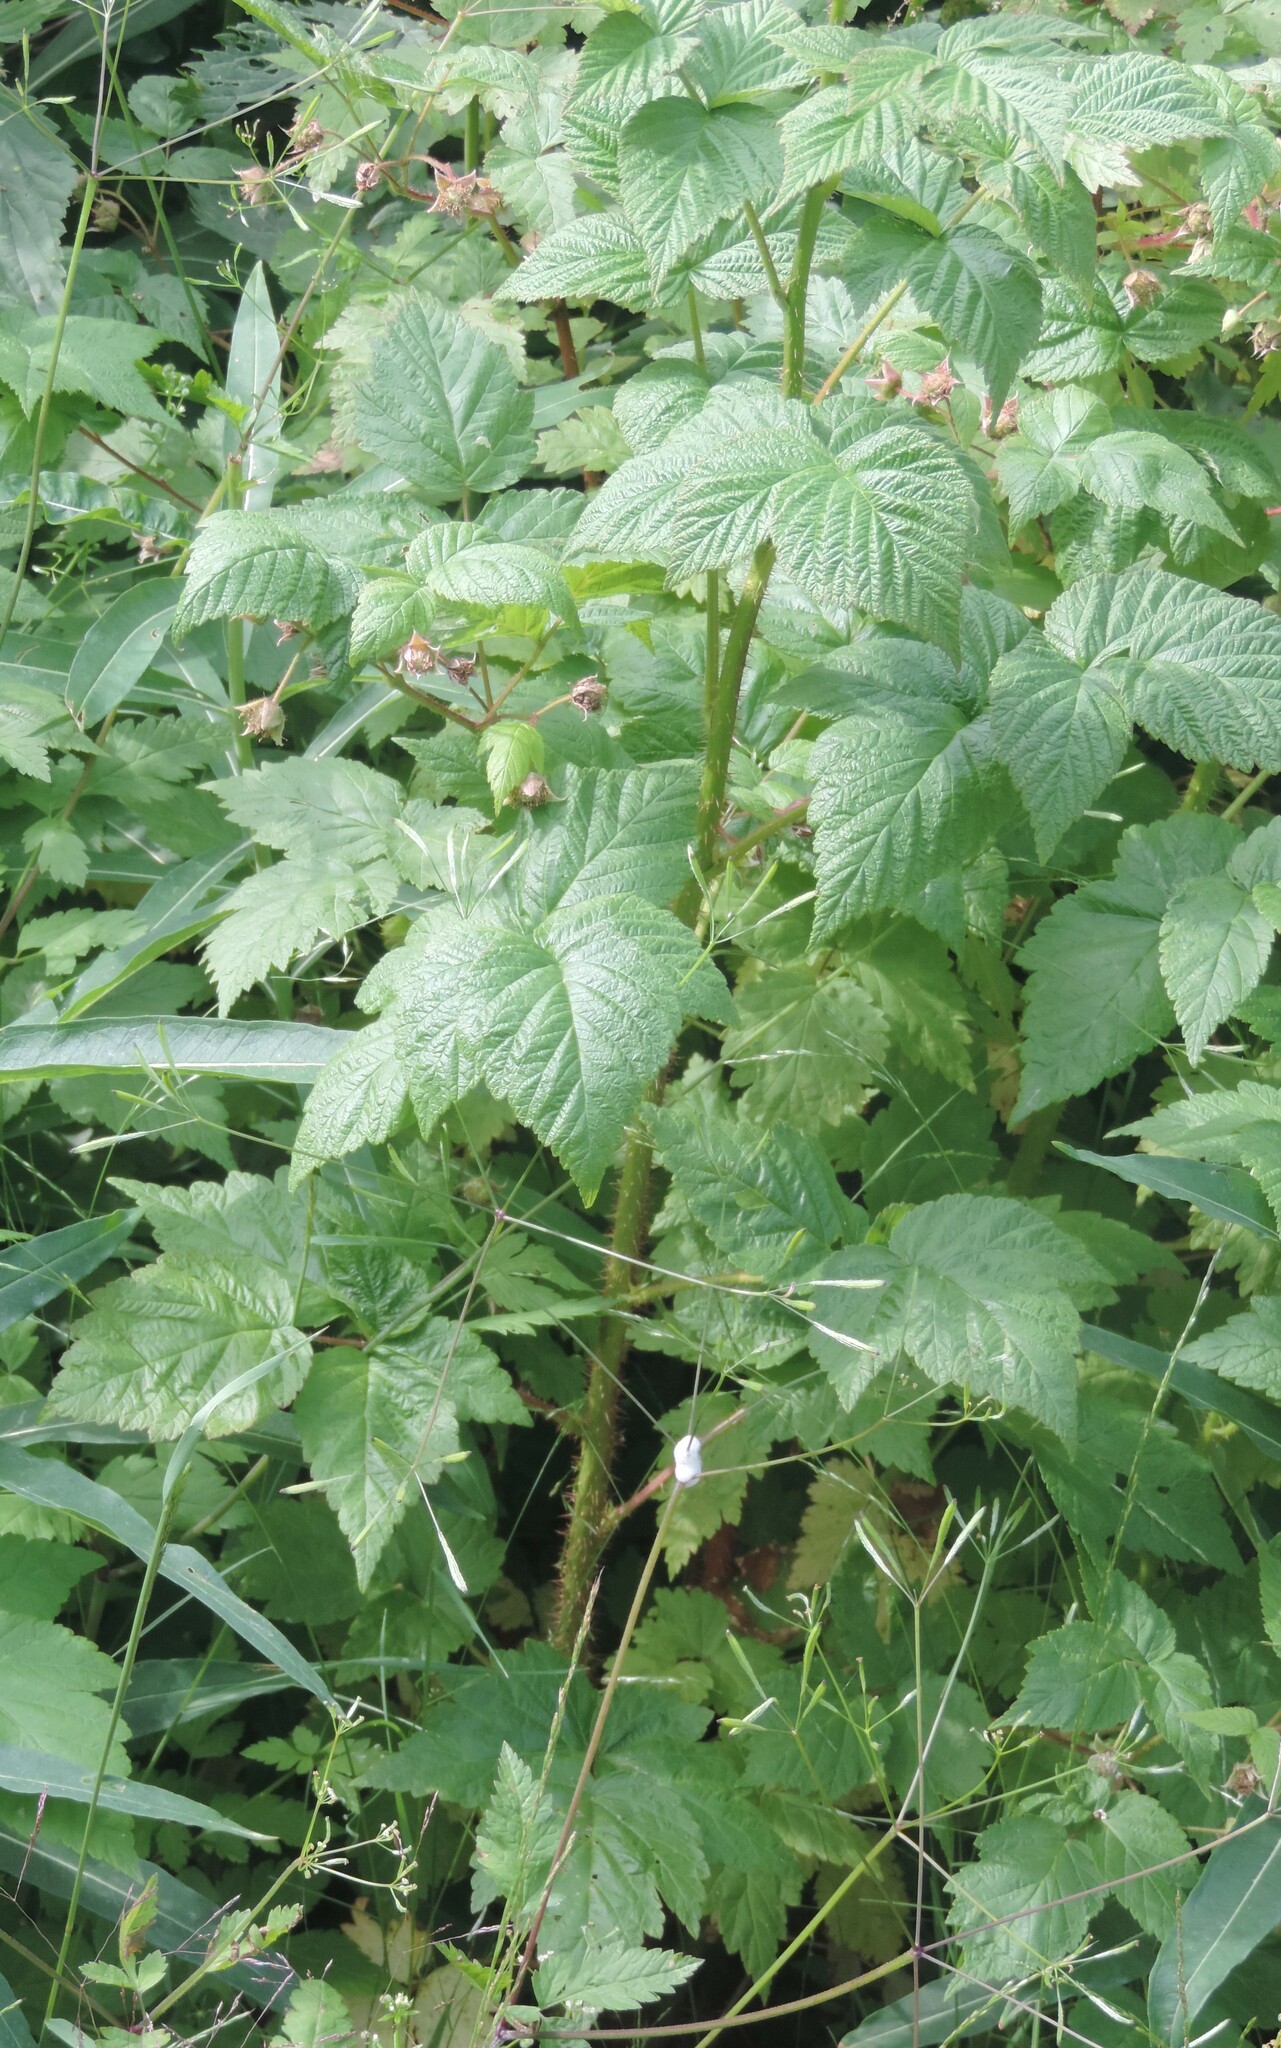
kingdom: Plantae
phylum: Tracheophyta
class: Magnoliopsida
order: Rosales
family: Rosaceae
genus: Rubus
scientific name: Rubus idaeus
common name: Raspberry
